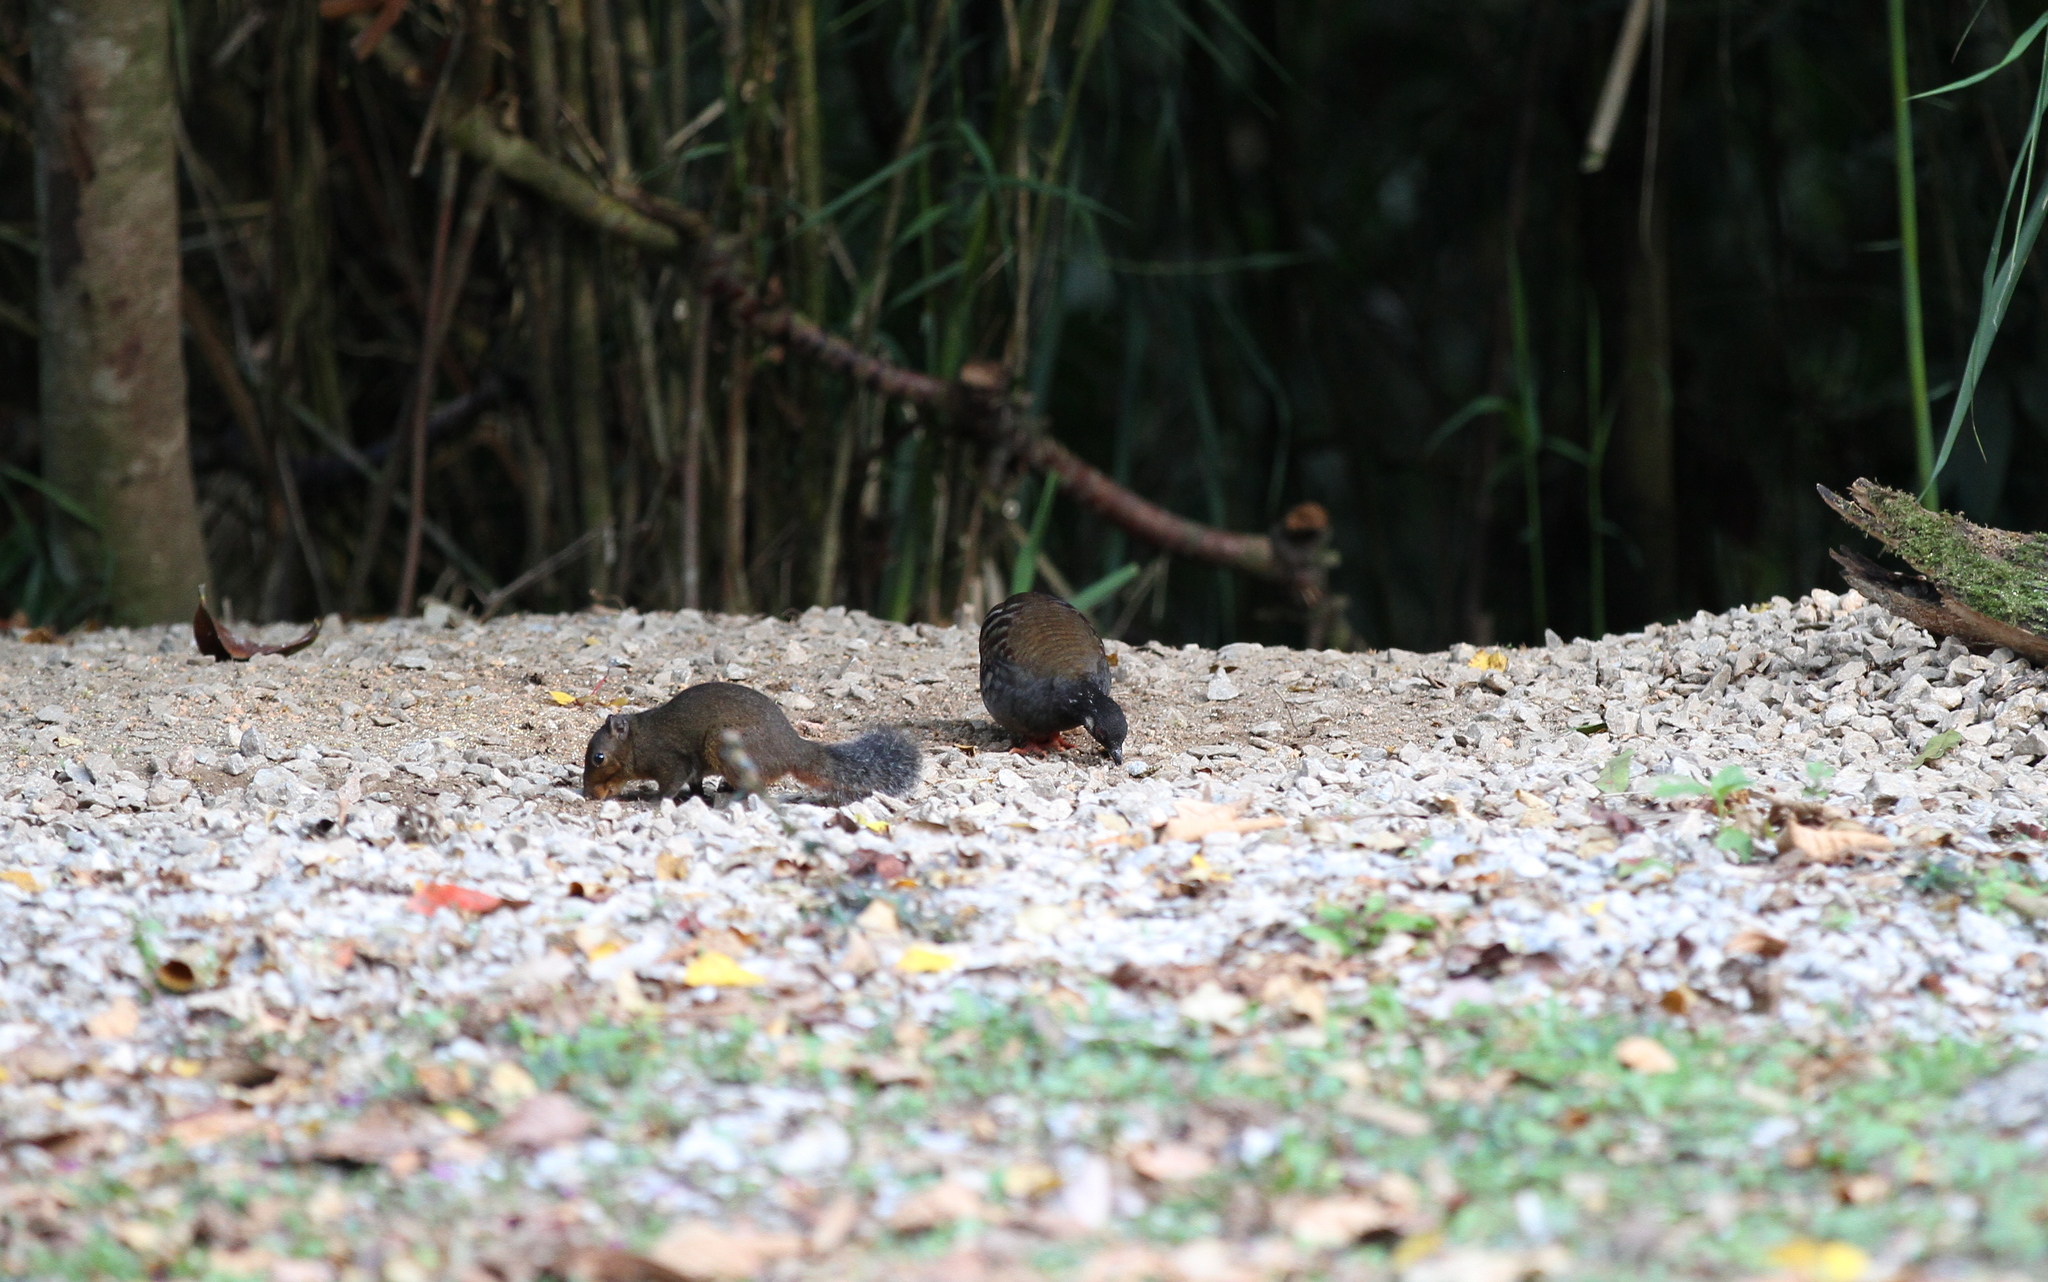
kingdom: Animalia
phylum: Chordata
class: Aves
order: Galliformes
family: Phasianidae
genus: Arborophila
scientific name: Arborophila campbelli
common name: Malaysian partridge
